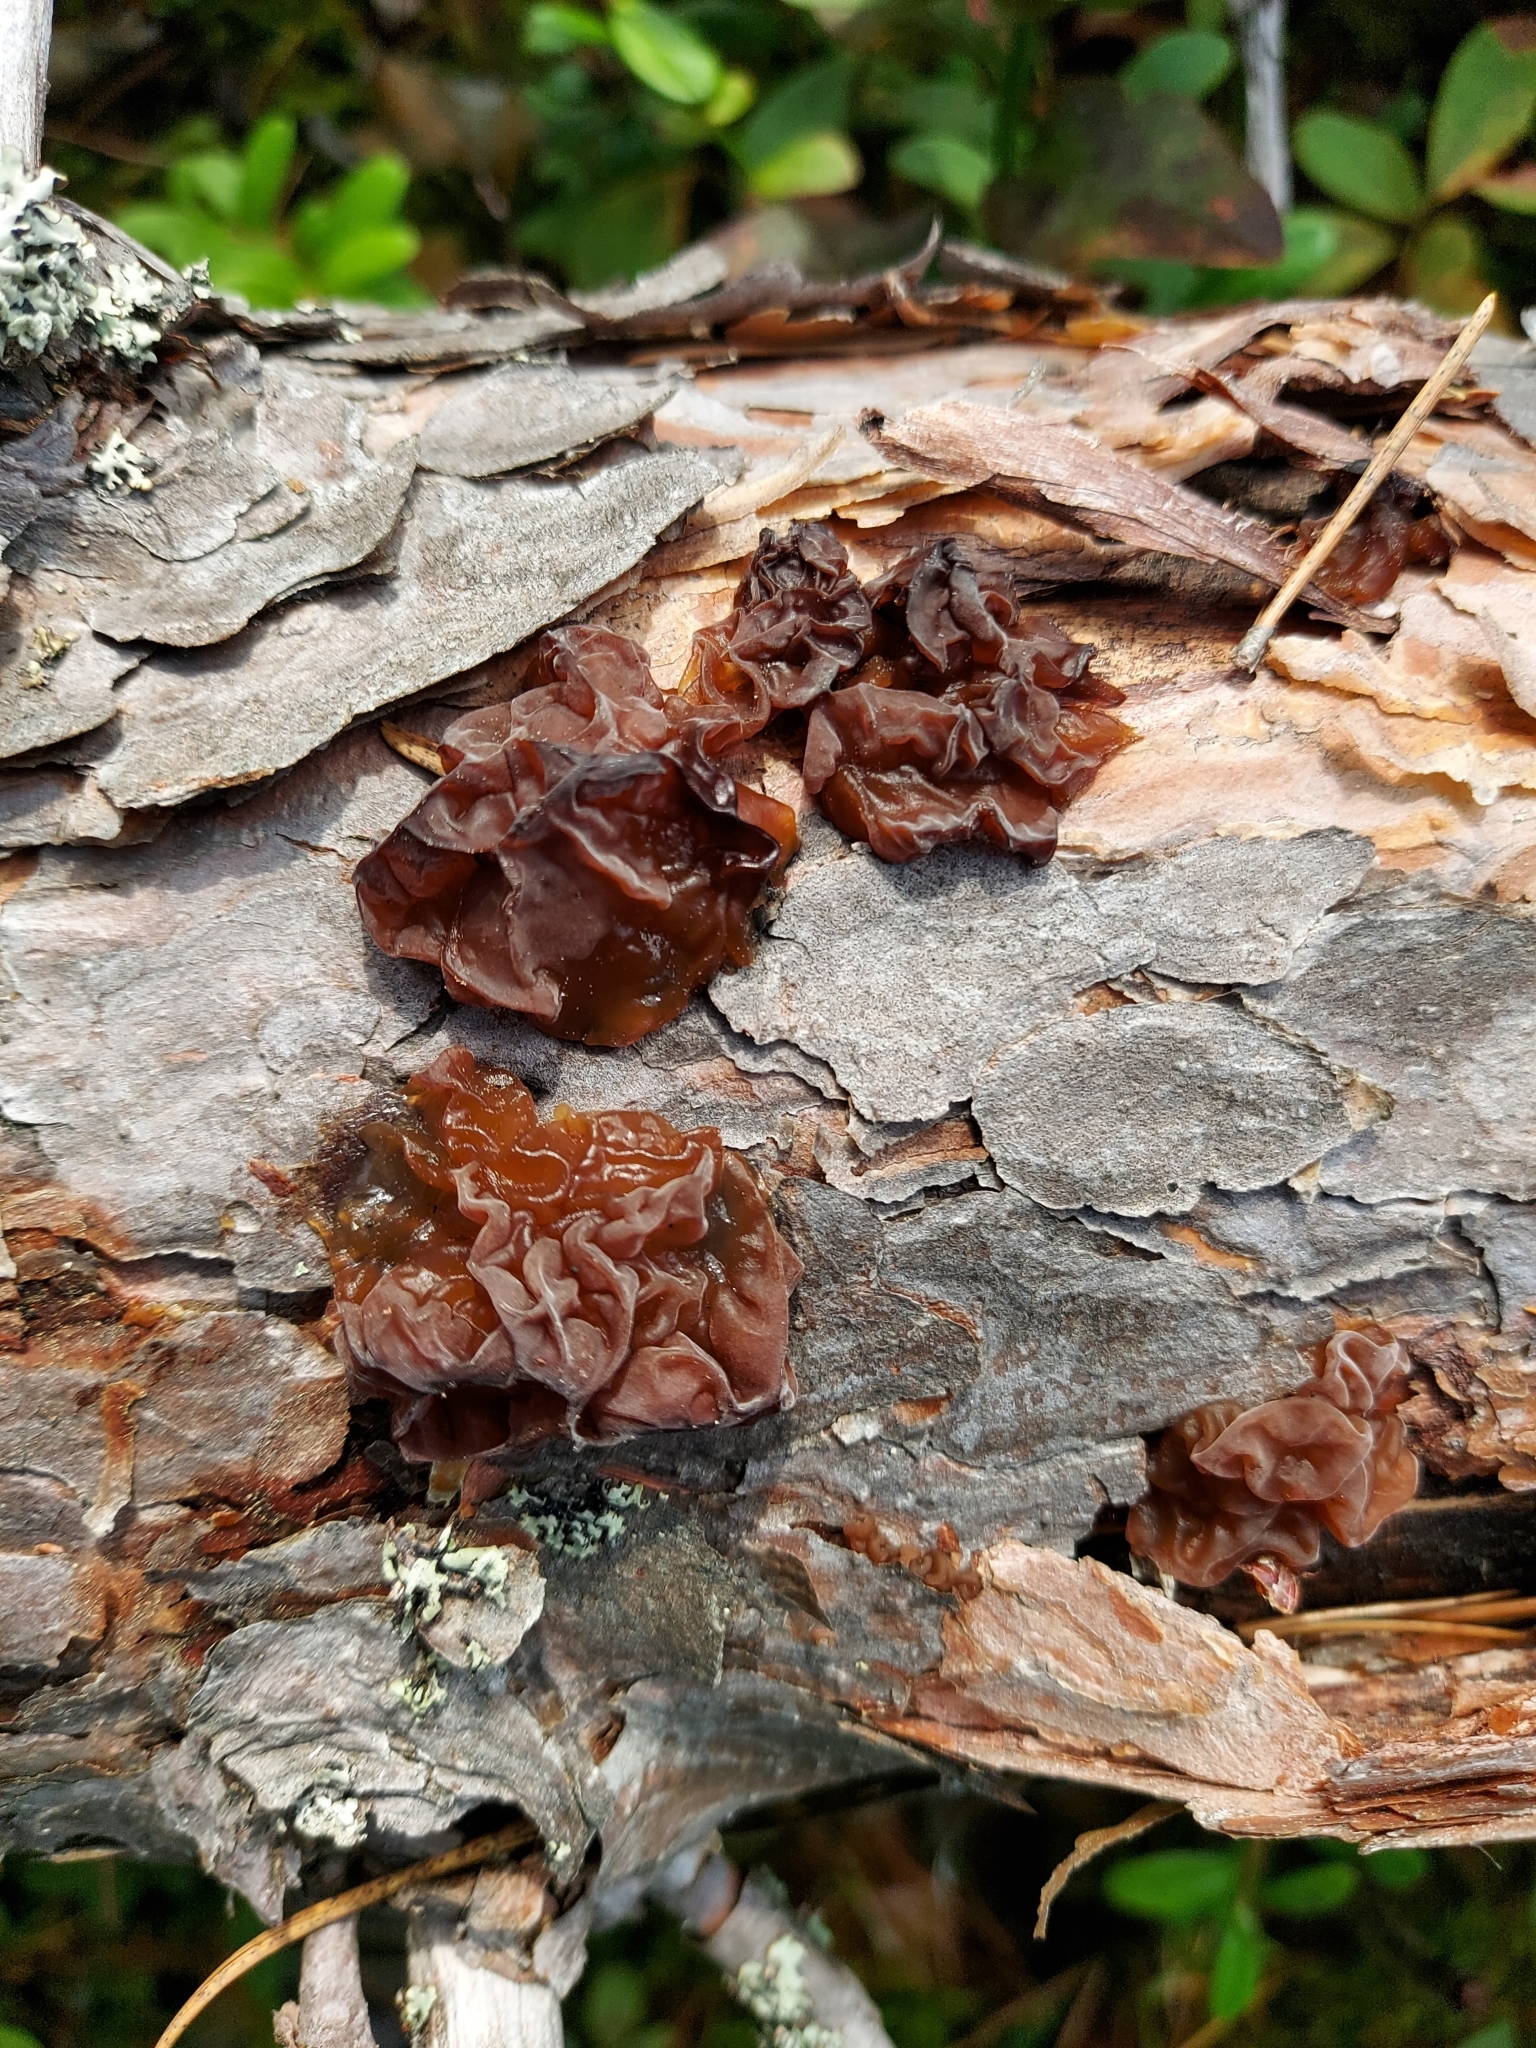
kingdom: Fungi
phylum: Basidiomycota
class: Tremellomycetes
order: Tremellales
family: Tremellaceae
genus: Phaeotremella
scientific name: Phaeotremella foliacea
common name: Leafy brain
